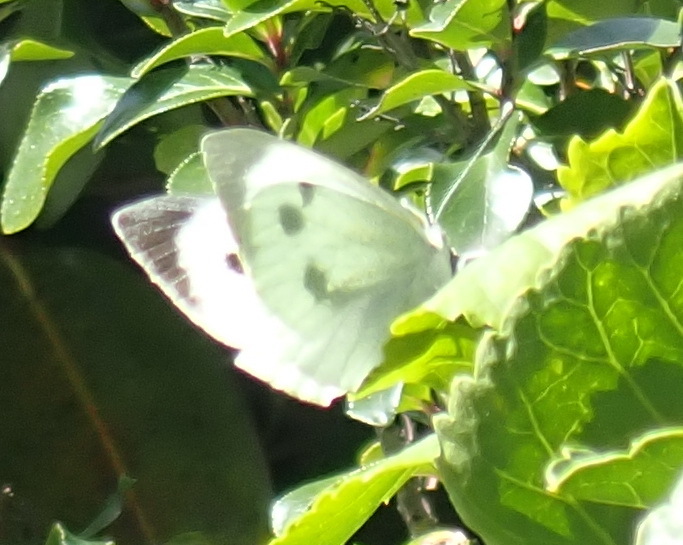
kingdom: Animalia
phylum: Arthropoda
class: Insecta
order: Lepidoptera
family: Pieridae
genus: Pieris
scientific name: Pieris brassicae
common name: Large white
